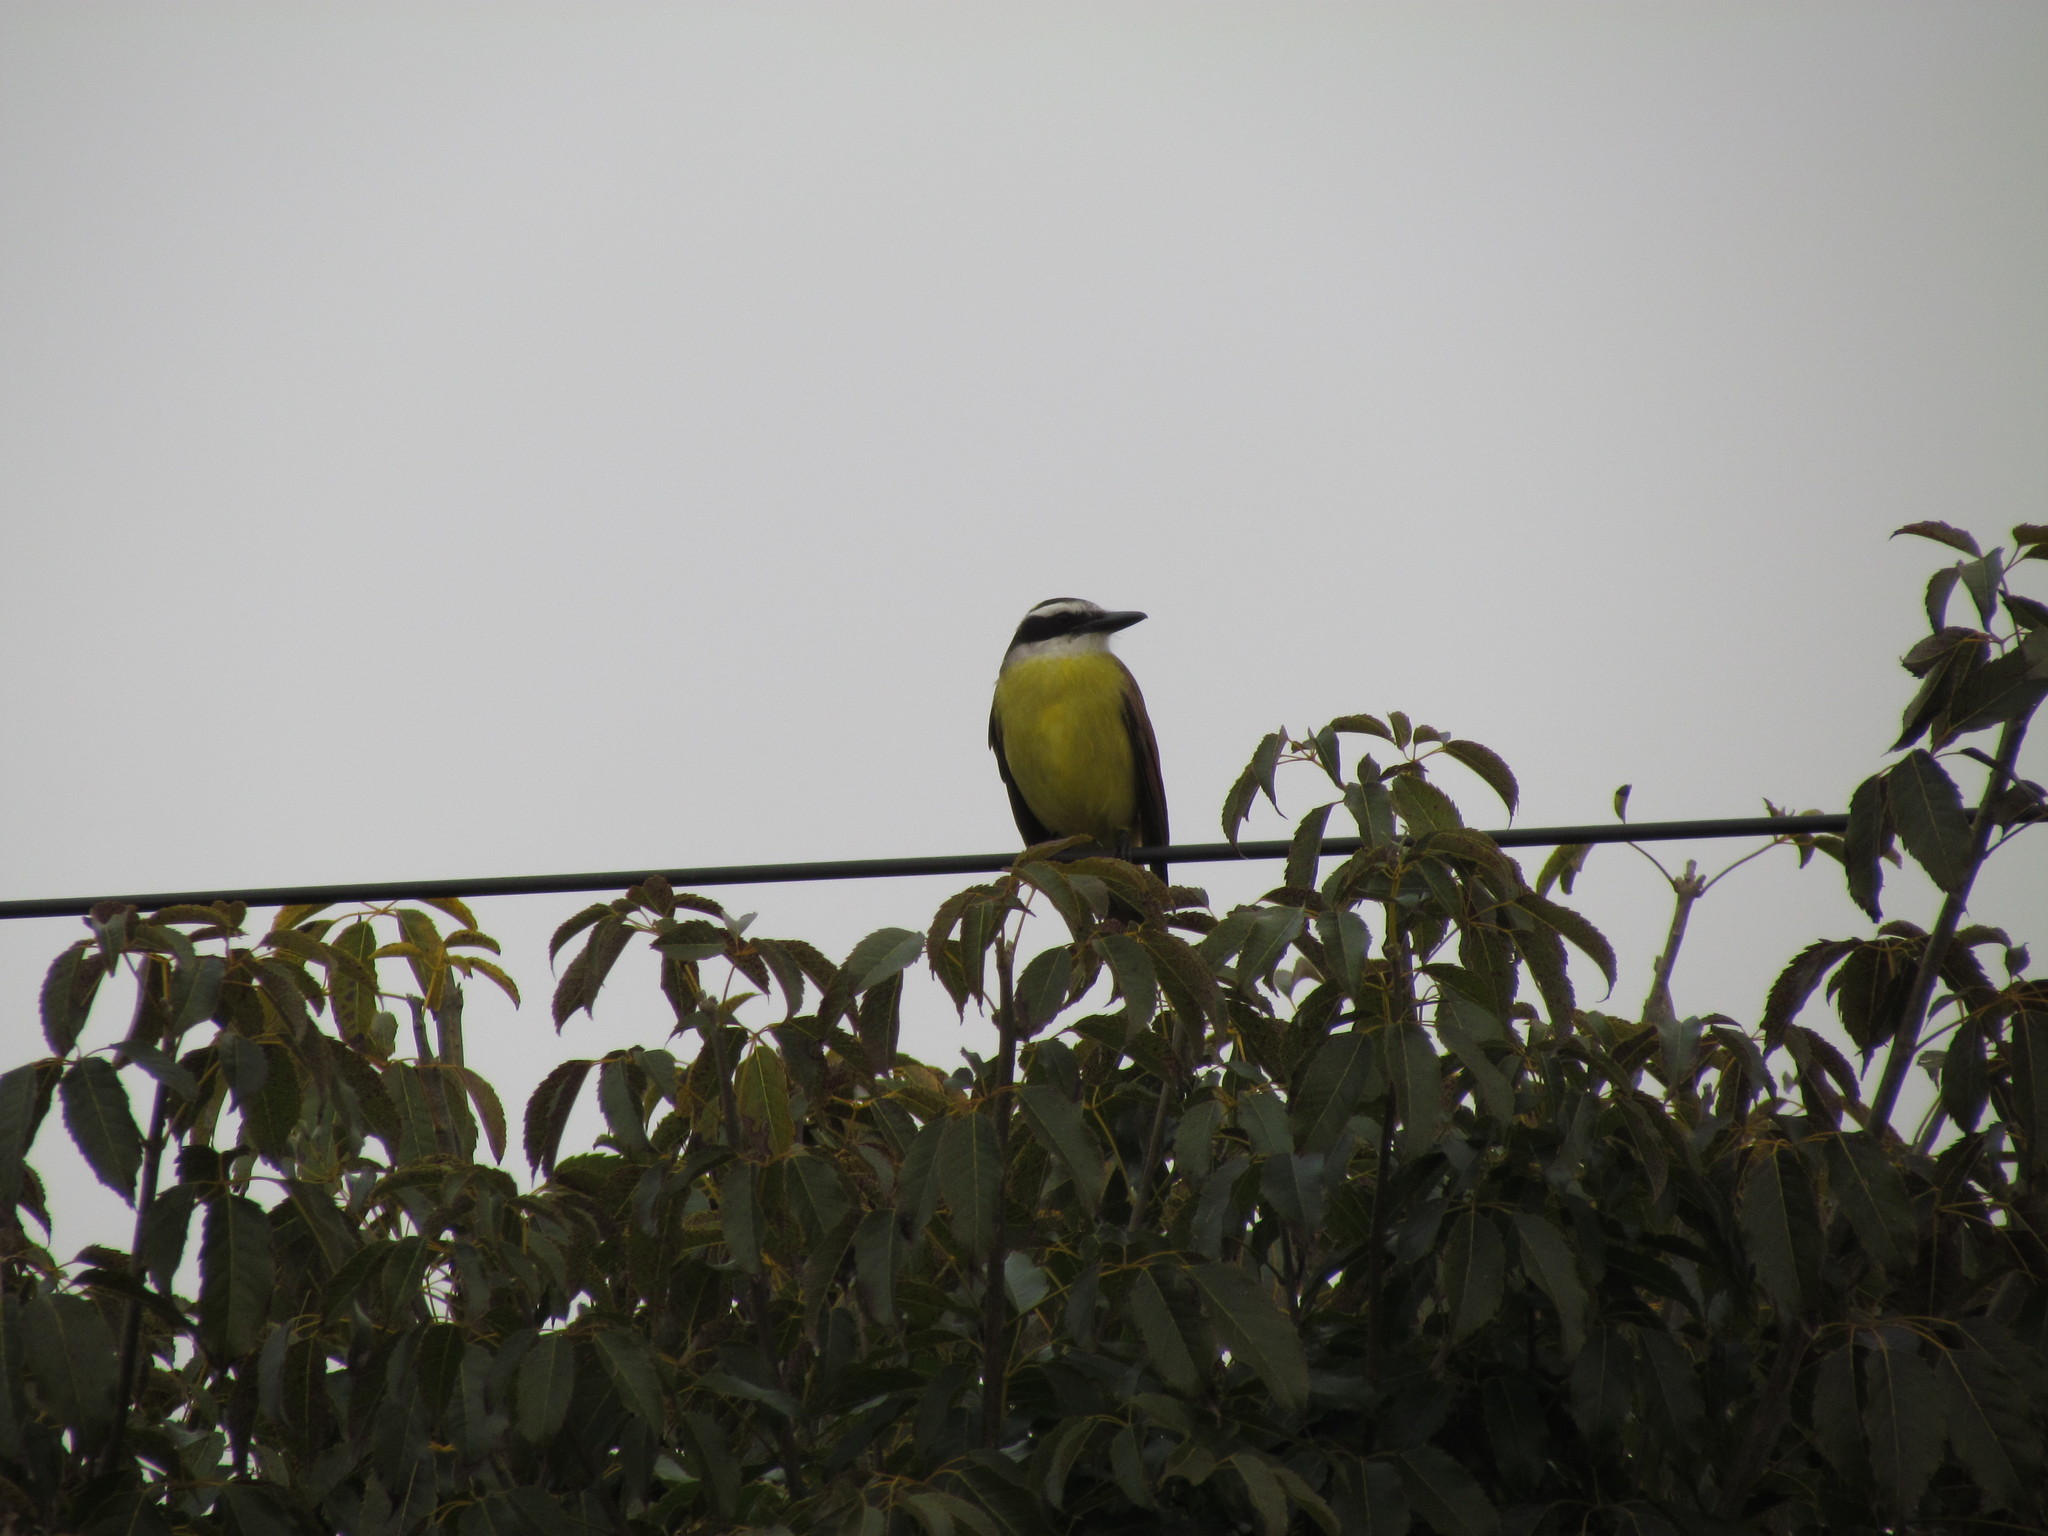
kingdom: Animalia
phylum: Chordata
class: Aves
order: Passeriformes
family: Tyrannidae
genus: Pitangus
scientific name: Pitangus sulphuratus
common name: Great kiskadee
